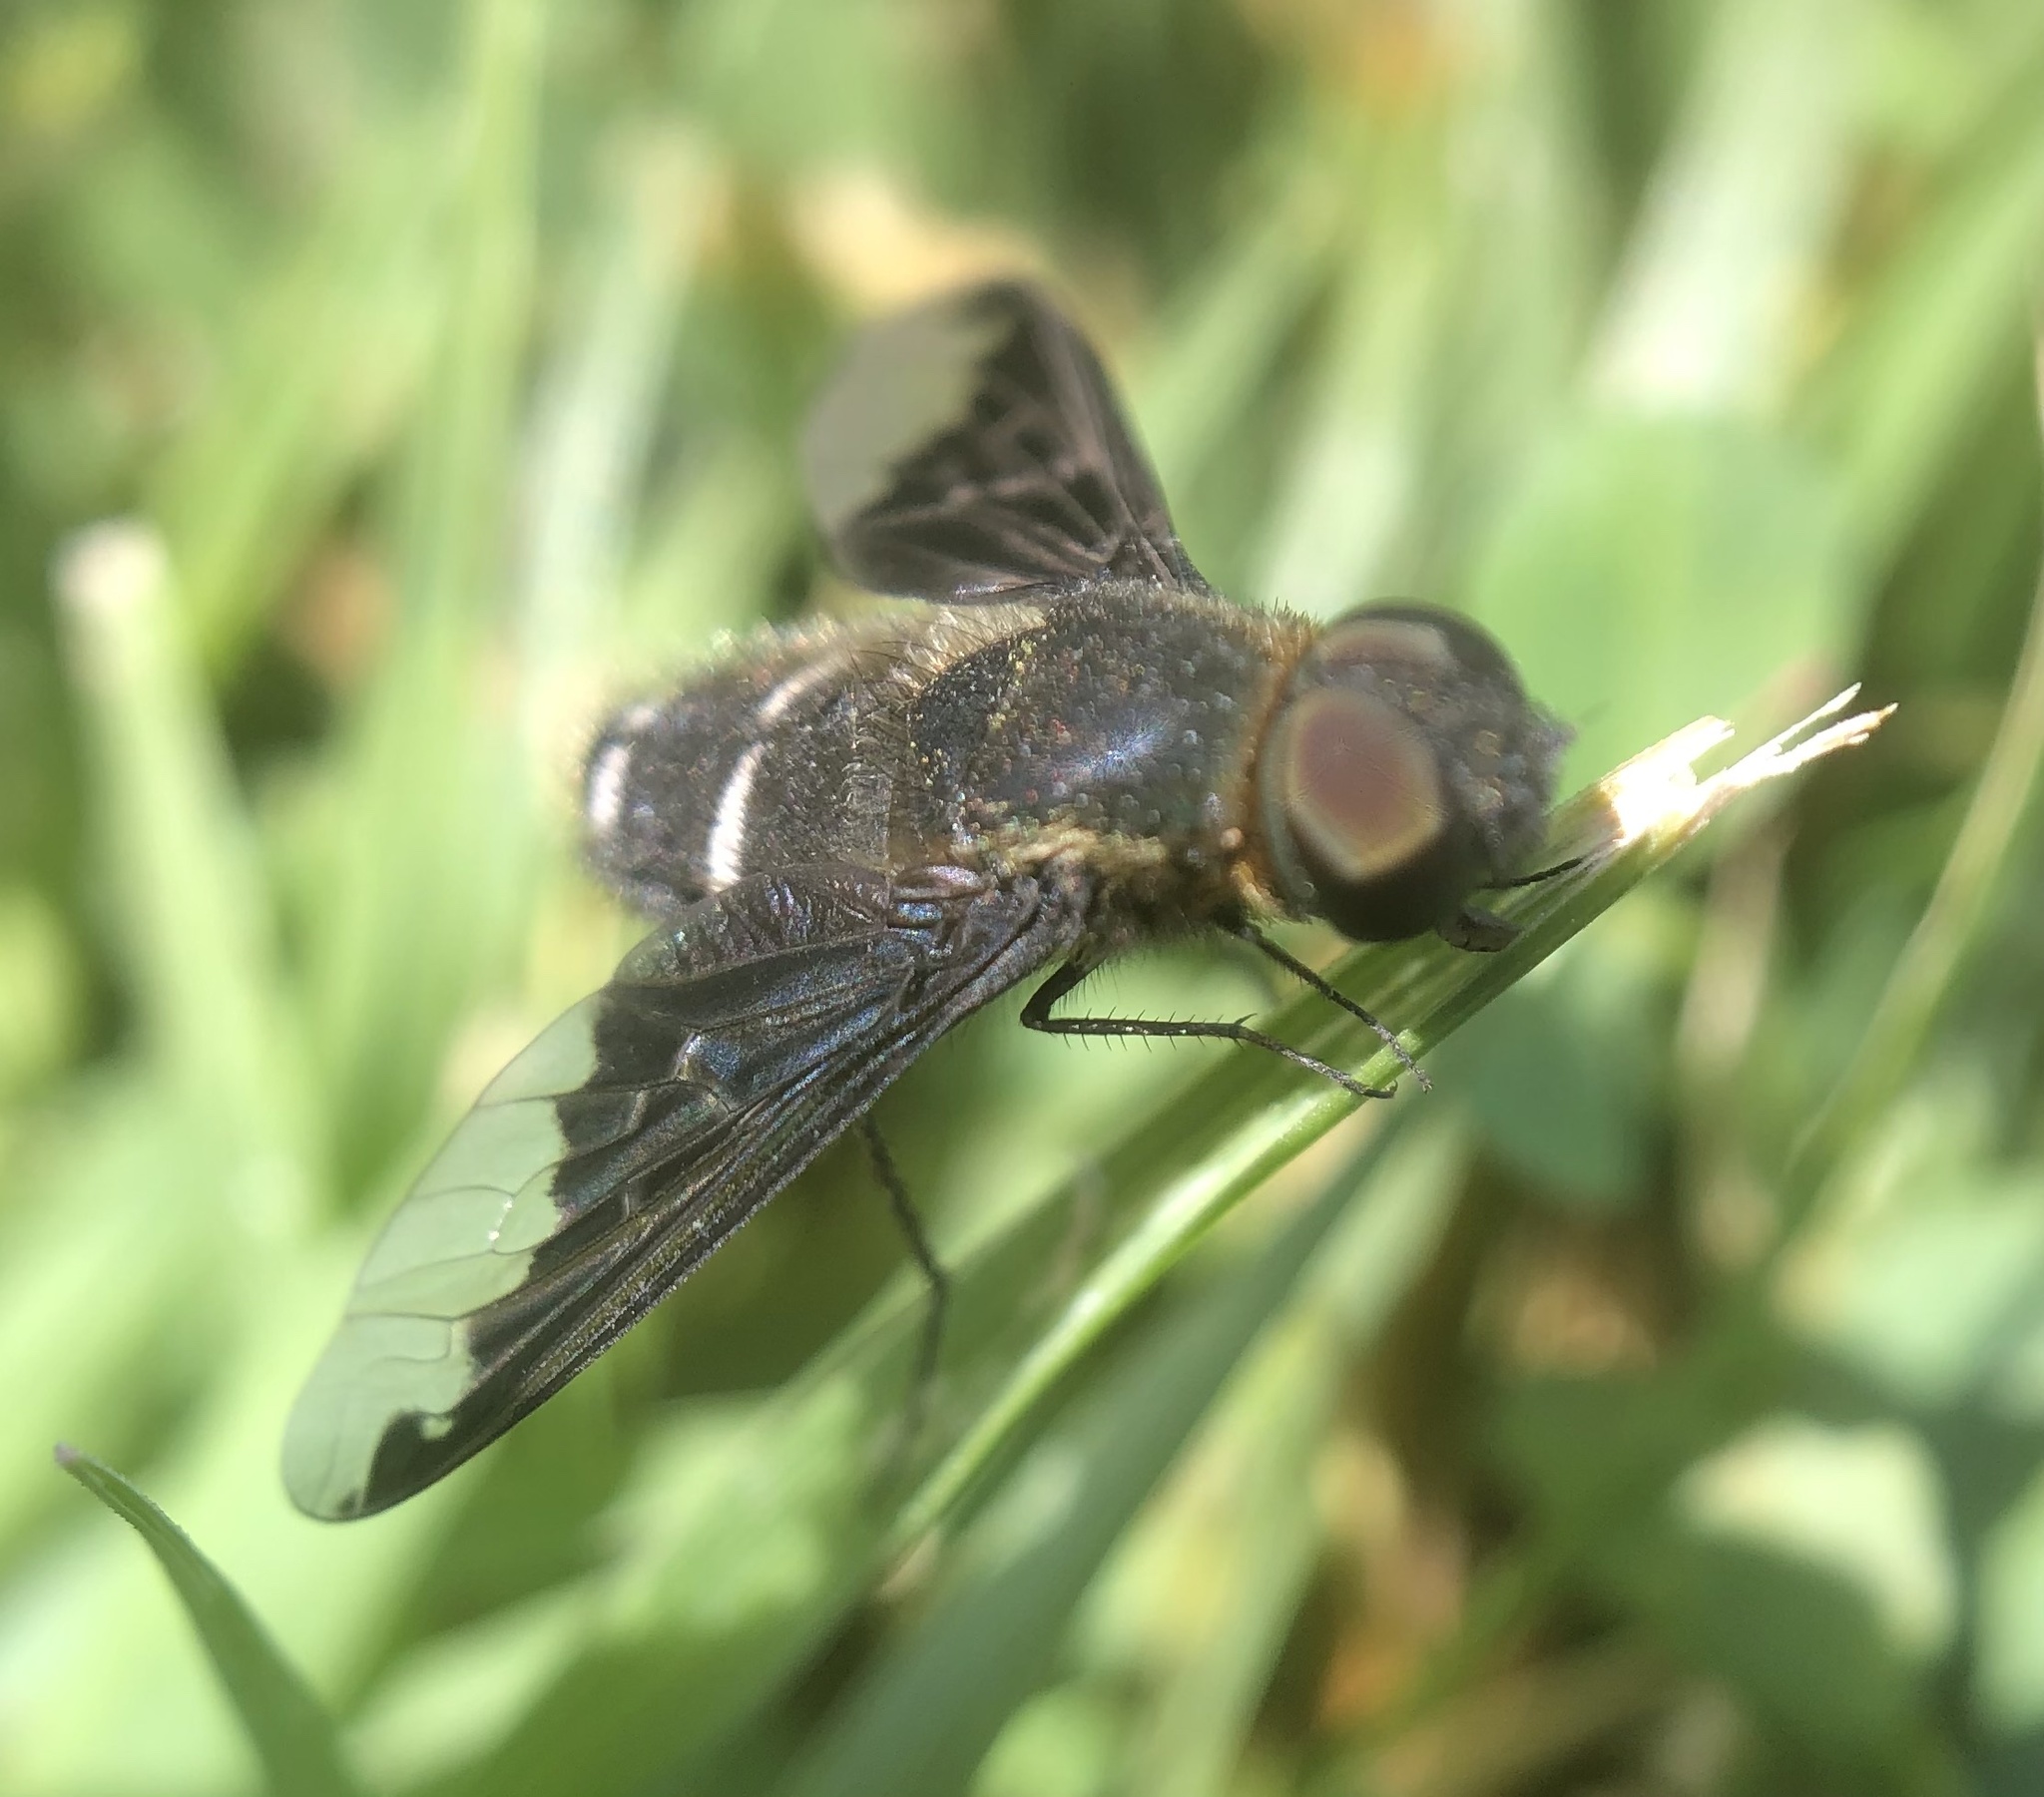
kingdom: Animalia
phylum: Arthropoda
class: Insecta
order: Diptera
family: Bombyliidae
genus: Hemipenthes
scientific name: Hemipenthes velutina
